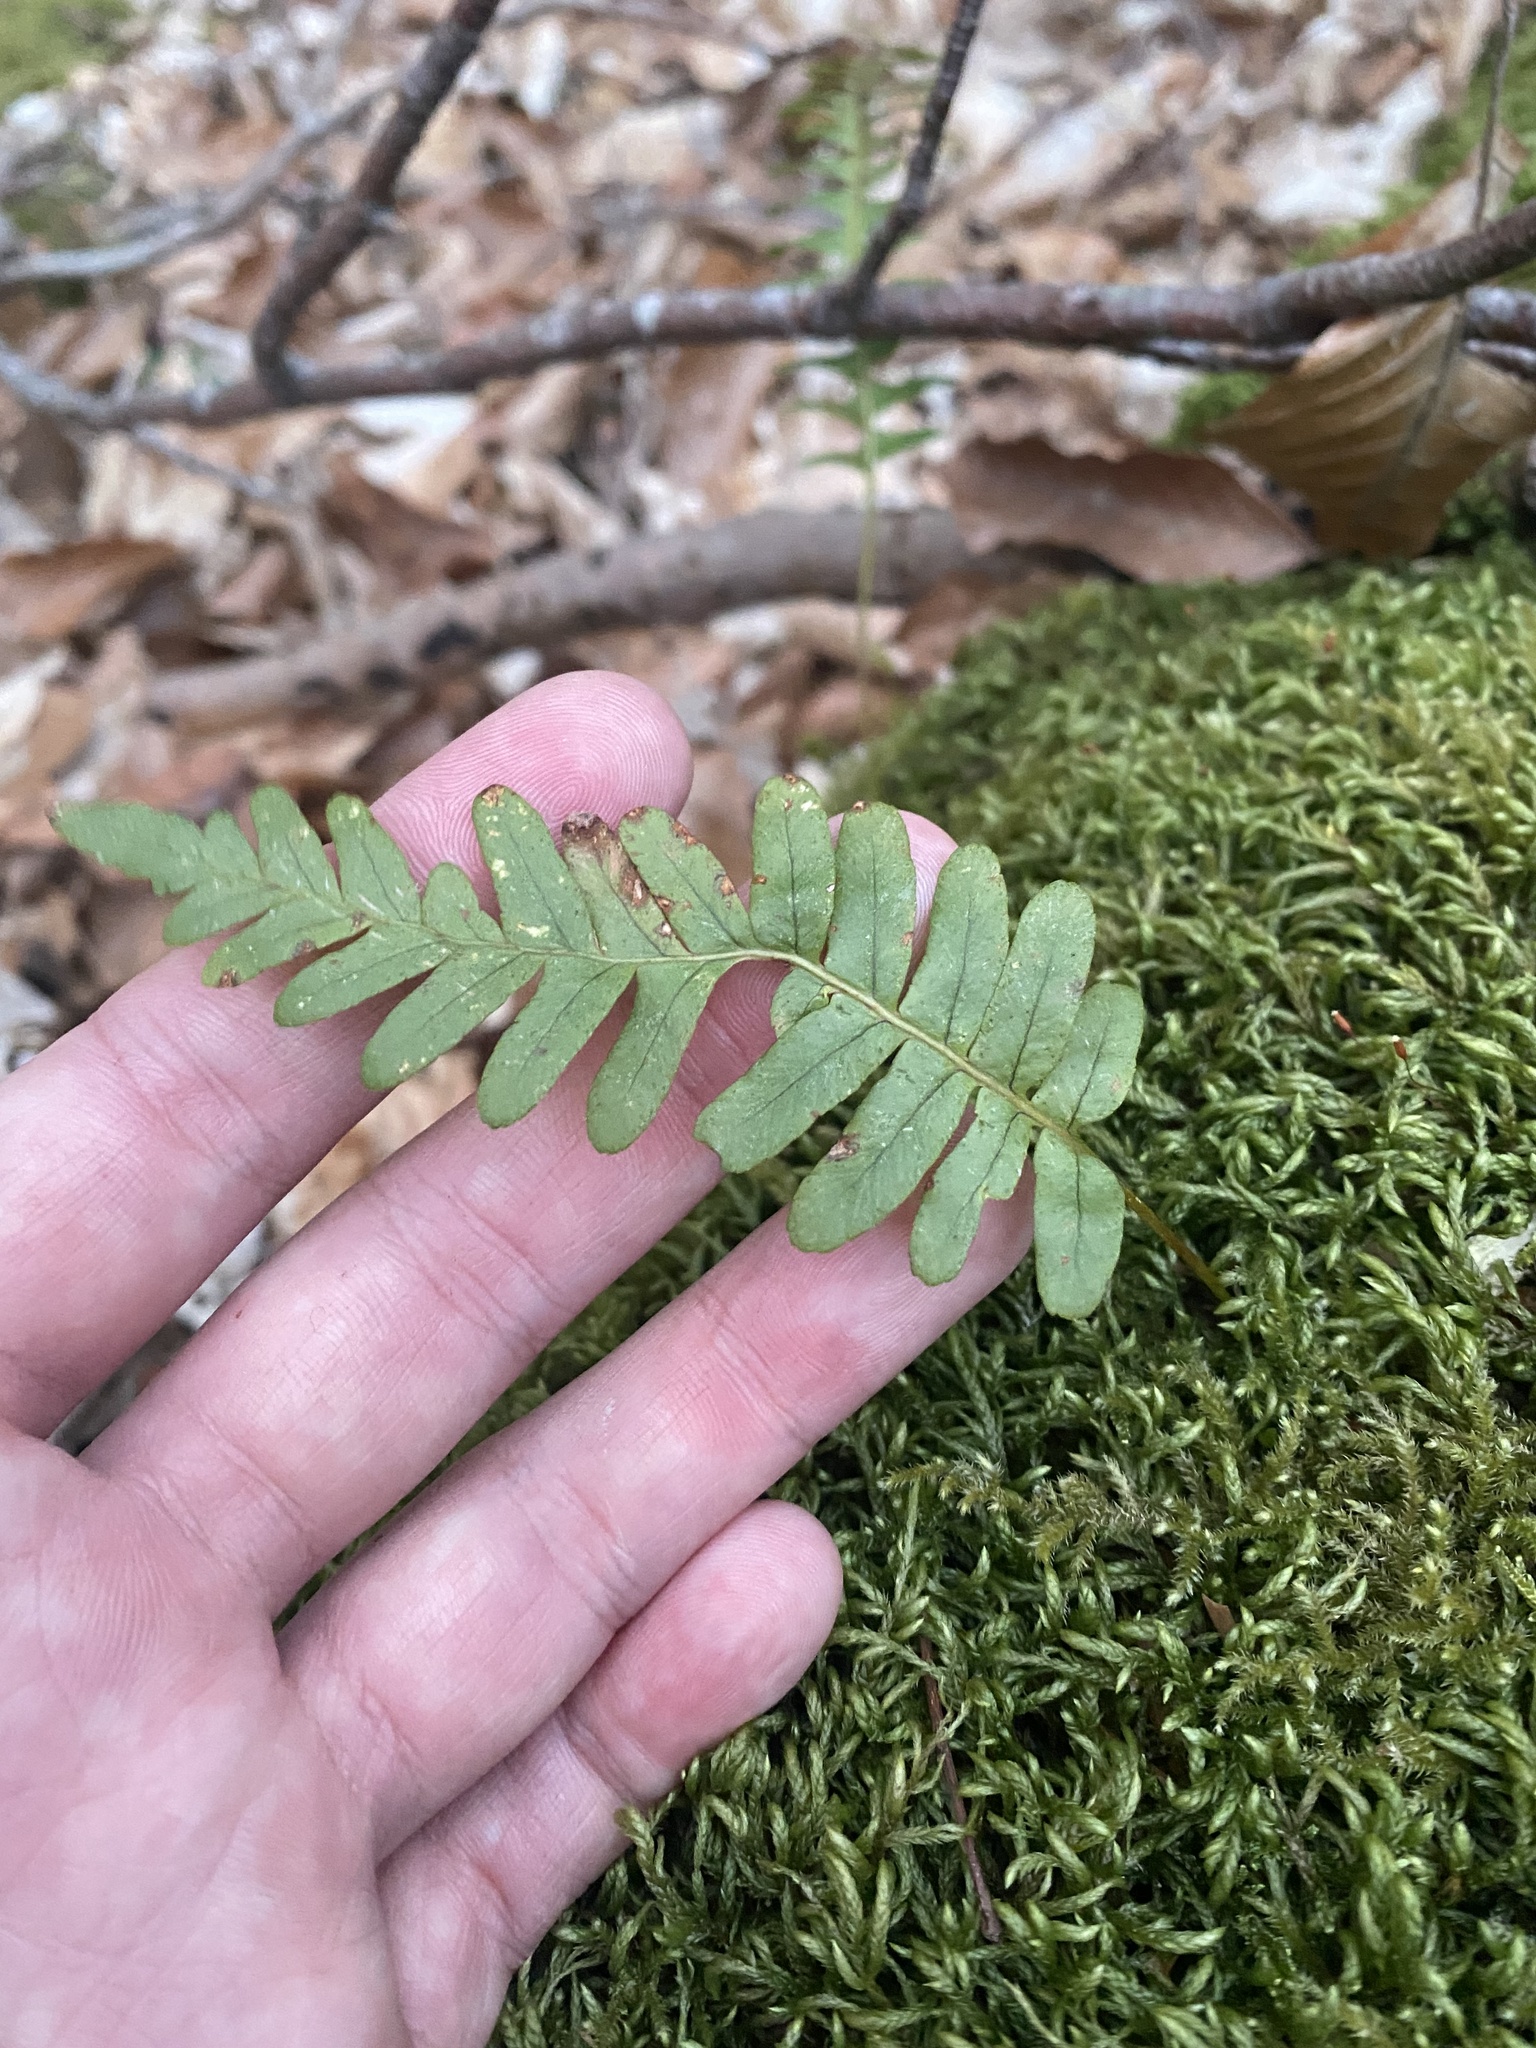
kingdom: Plantae
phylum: Tracheophyta
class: Polypodiopsida
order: Polypodiales
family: Polypodiaceae
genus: Polypodium
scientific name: Polypodium vulgare
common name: Common polypody
